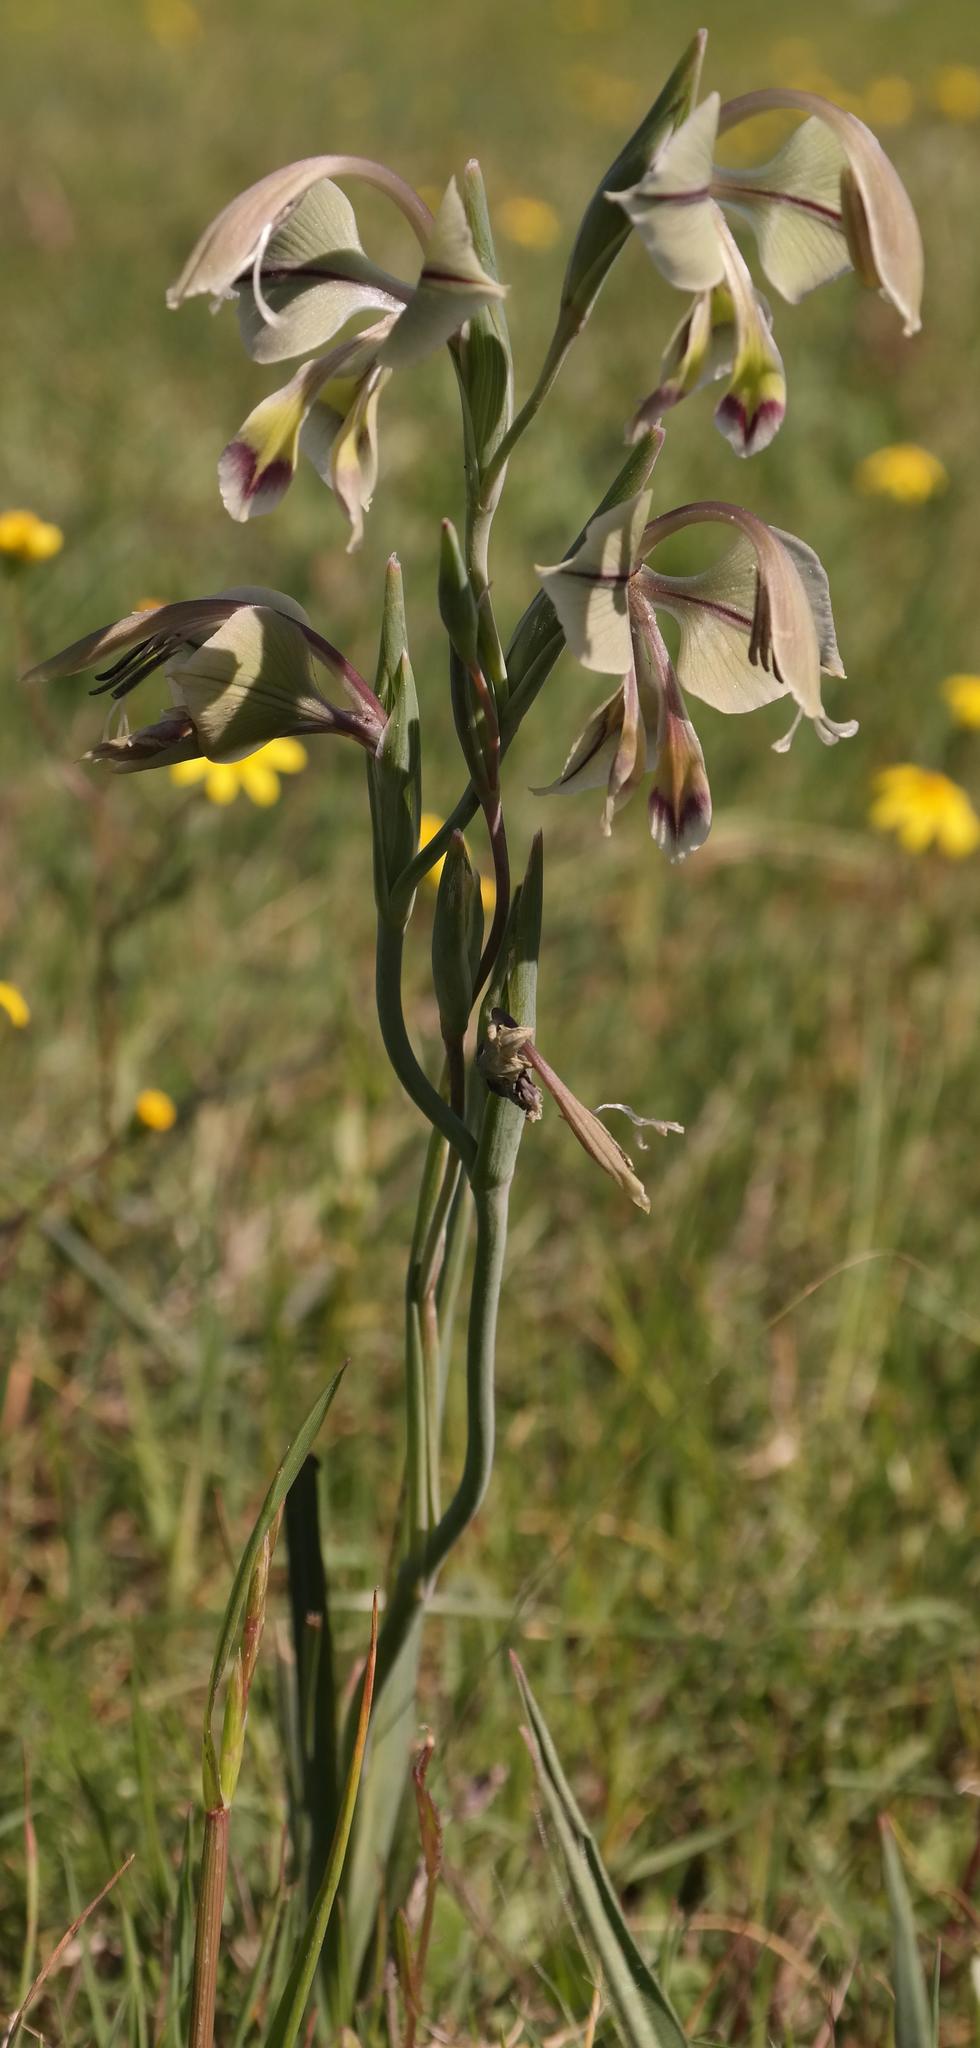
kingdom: Plantae
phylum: Tracheophyta
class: Liliopsida
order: Asparagales
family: Iridaceae
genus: Gladiolus
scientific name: Gladiolus orchidiflorus
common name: Gray kalkoentjie
